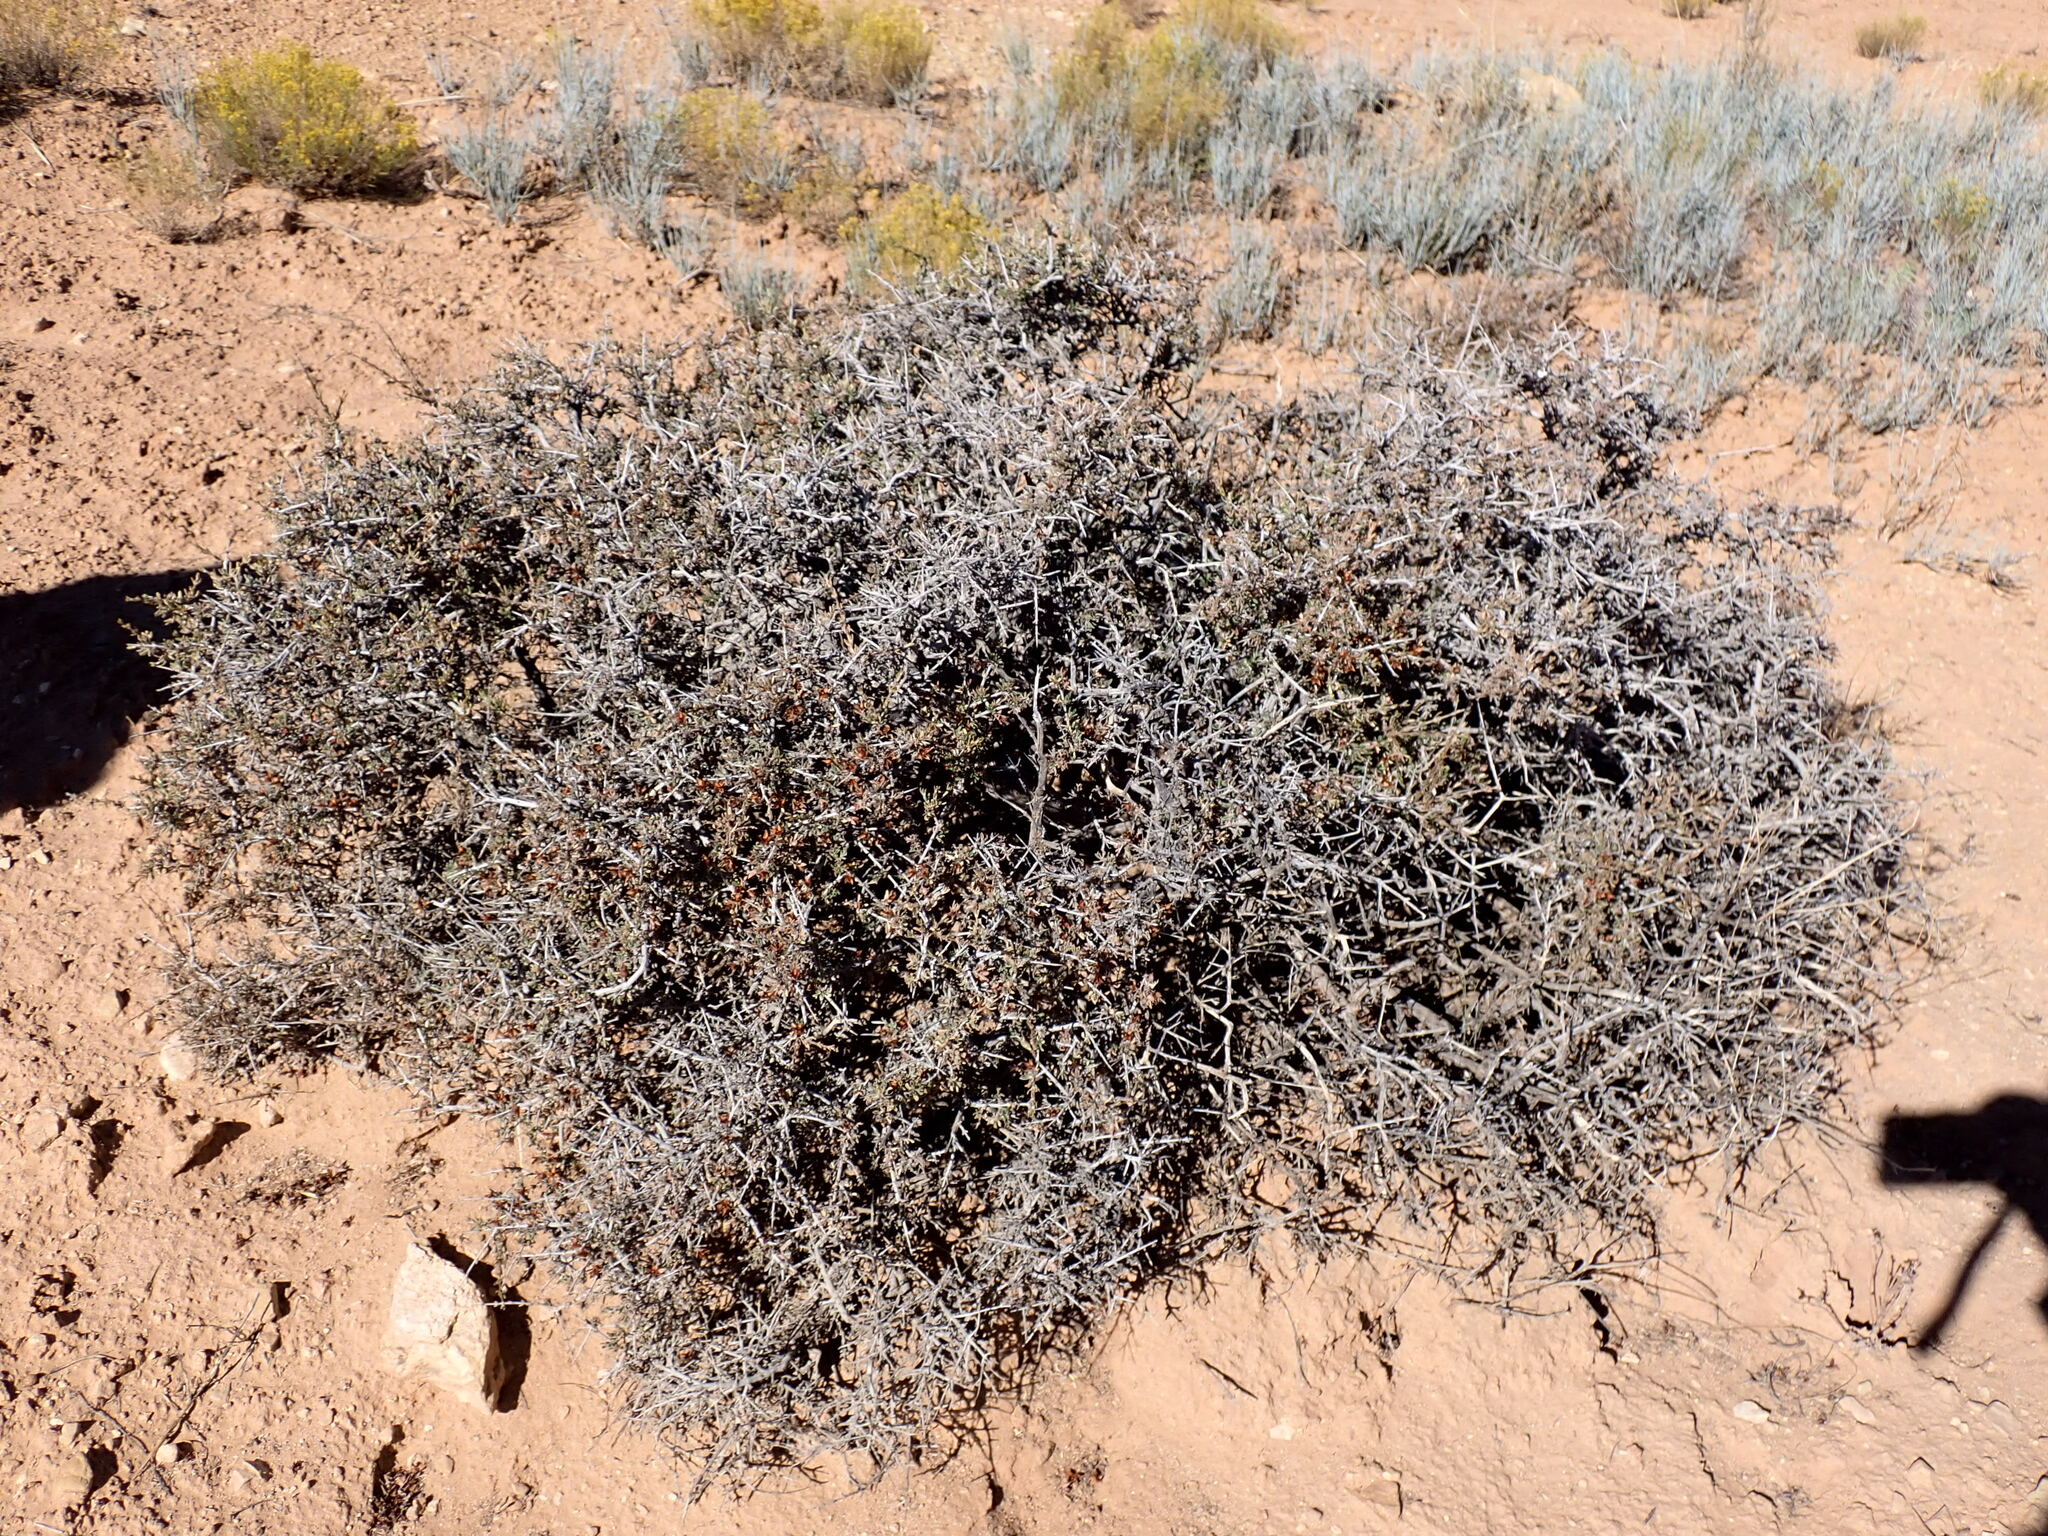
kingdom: Plantae
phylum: Tracheophyta
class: Magnoliopsida
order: Rosales
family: Rosaceae
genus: Coleogyne
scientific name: Coleogyne ramosissima
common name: Blackbrush
